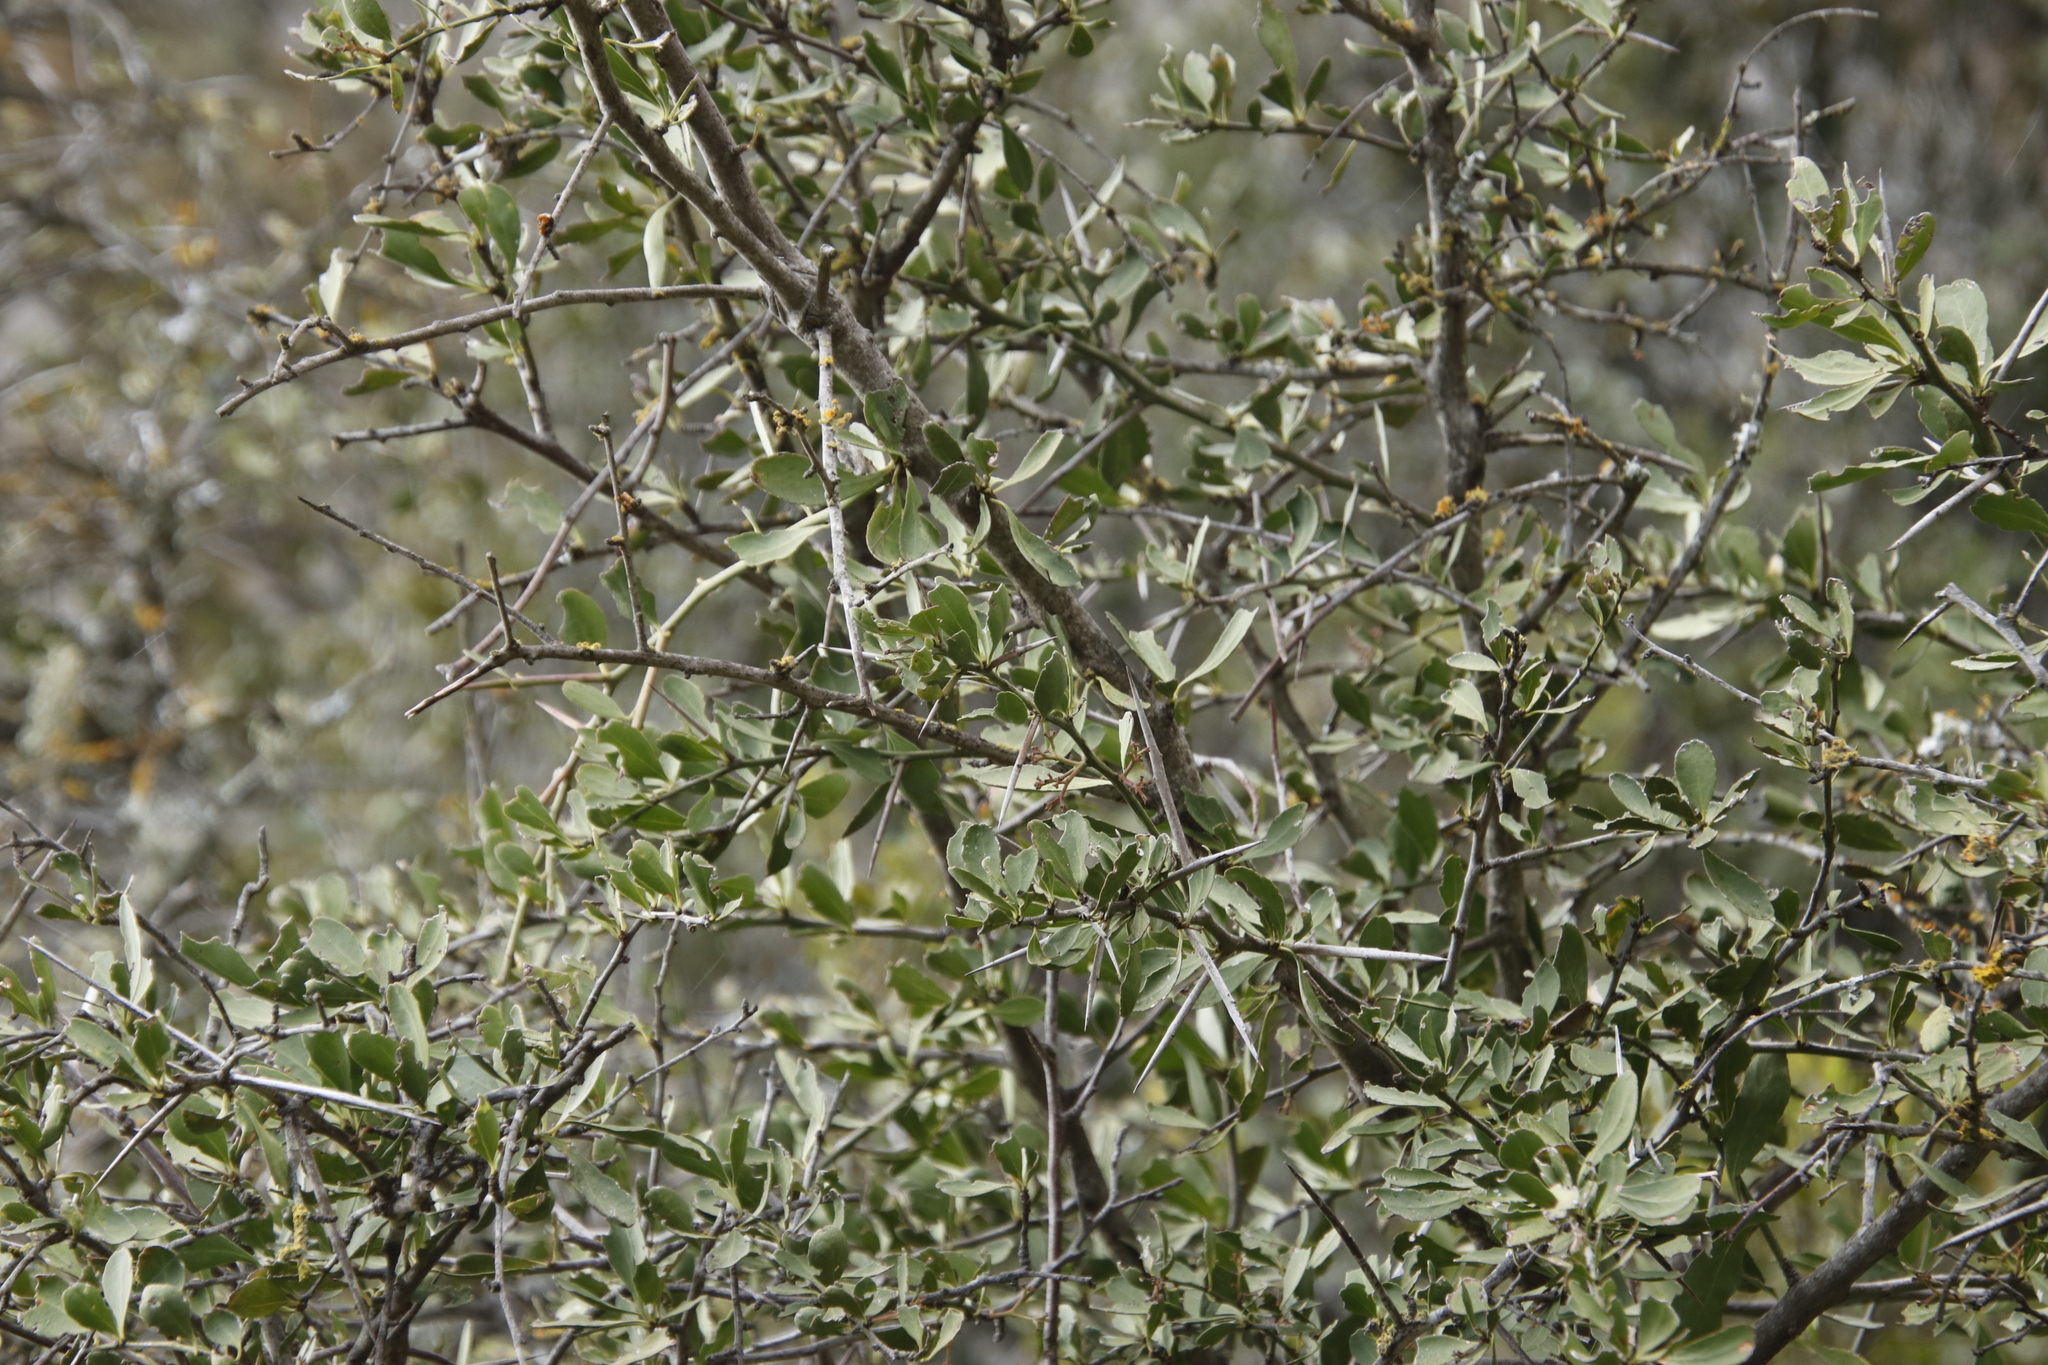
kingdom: Plantae
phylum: Tracheophyta
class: Magnoliopsida
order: Celastrales
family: Celastraceae
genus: Gymnosporia
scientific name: Gymnosporia buxifolia
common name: Common spike-thorn
